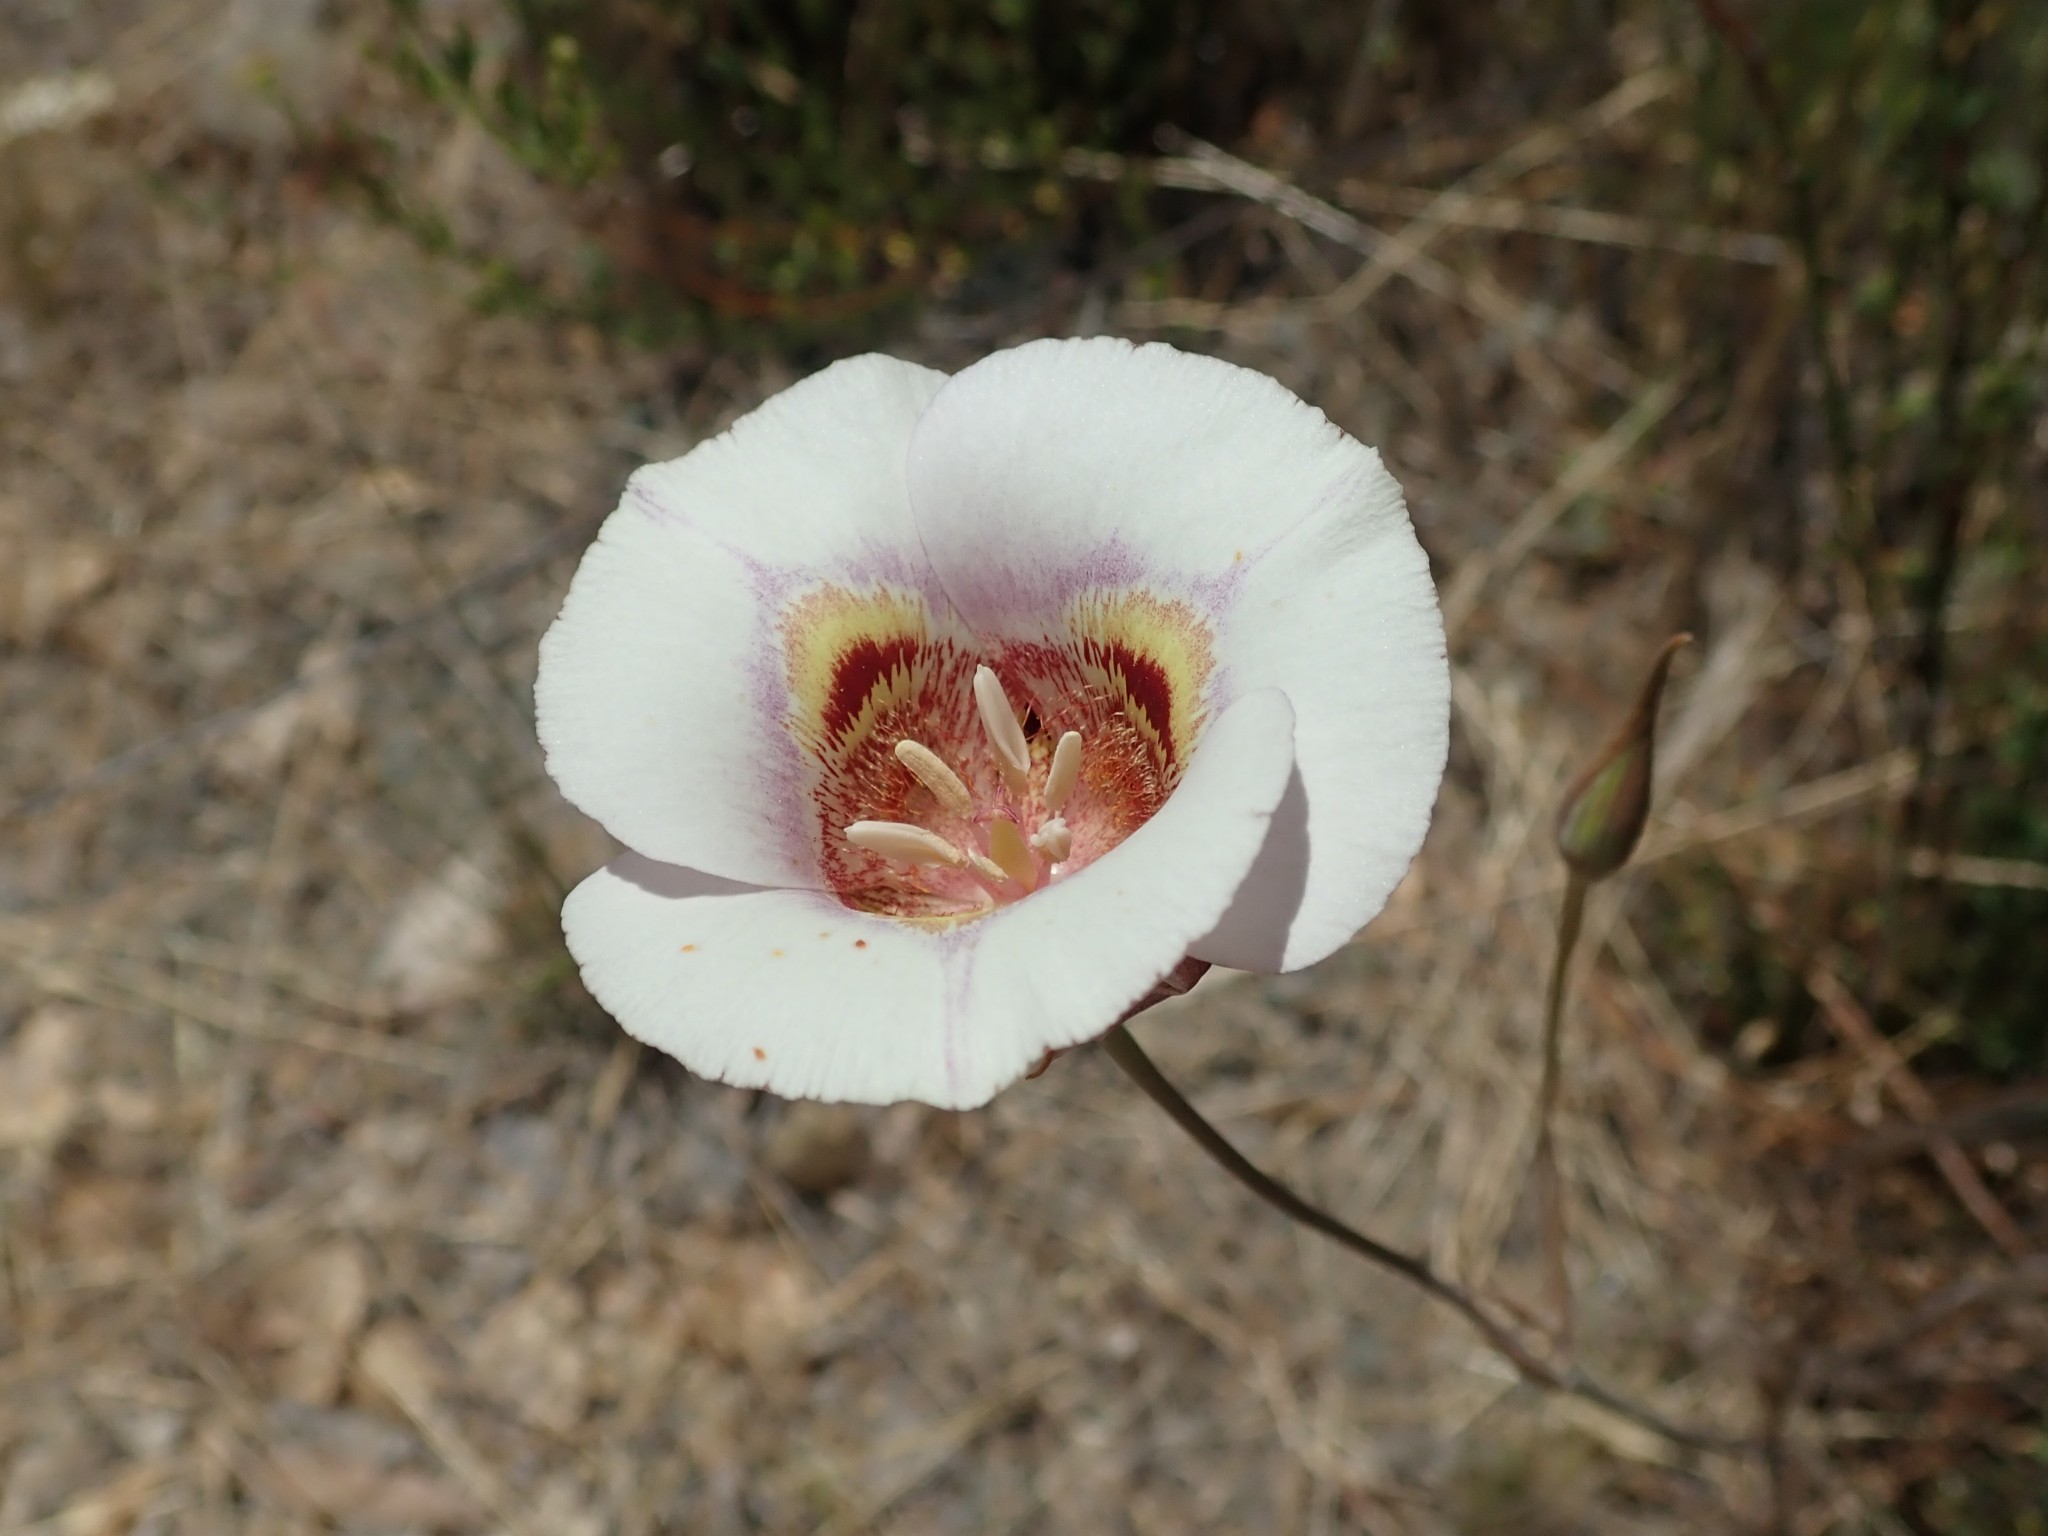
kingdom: Plantae
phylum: Tracheophyta
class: Liliopsida
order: Liliales
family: Liliaceae
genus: Calochortus
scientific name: Calochortus argillosus
